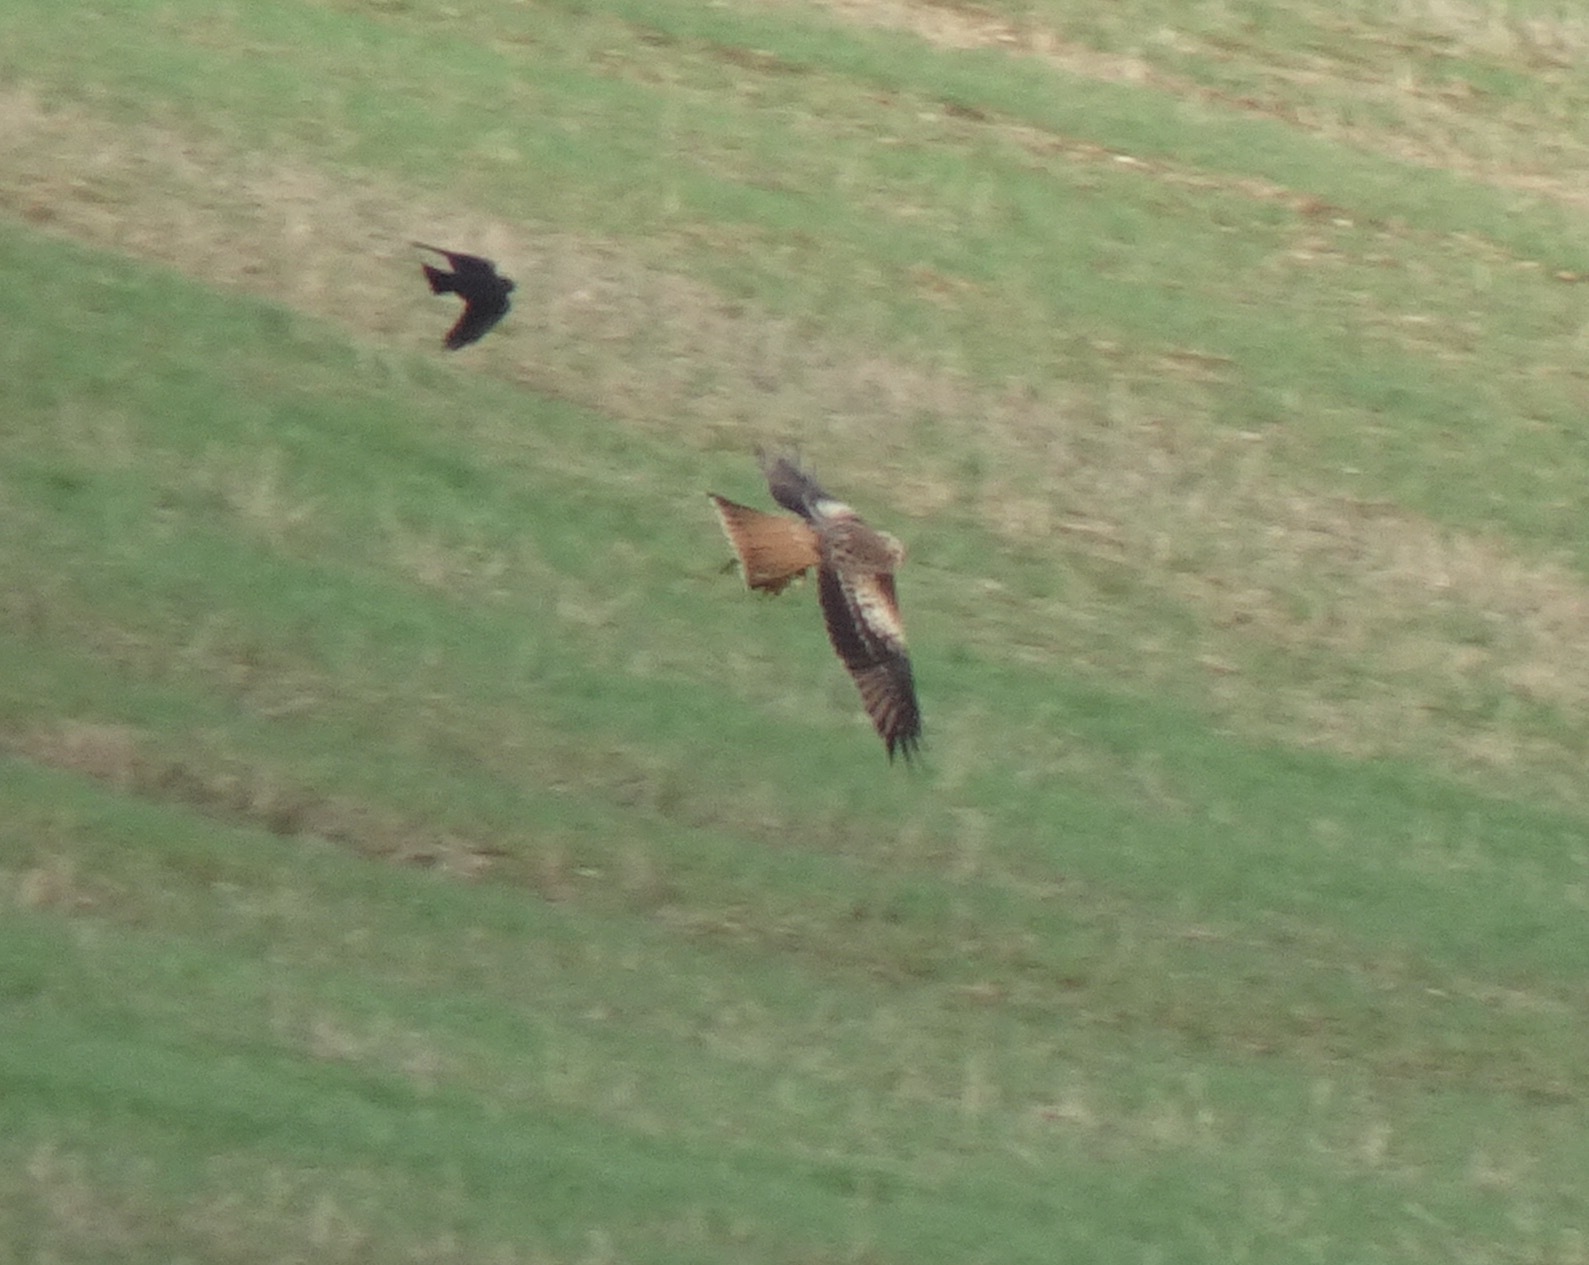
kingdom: Animalia
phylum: Chordata
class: Aves
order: Accipitriformes
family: Accipitridae
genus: Milvus
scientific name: Milvus milvus
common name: Red kite
